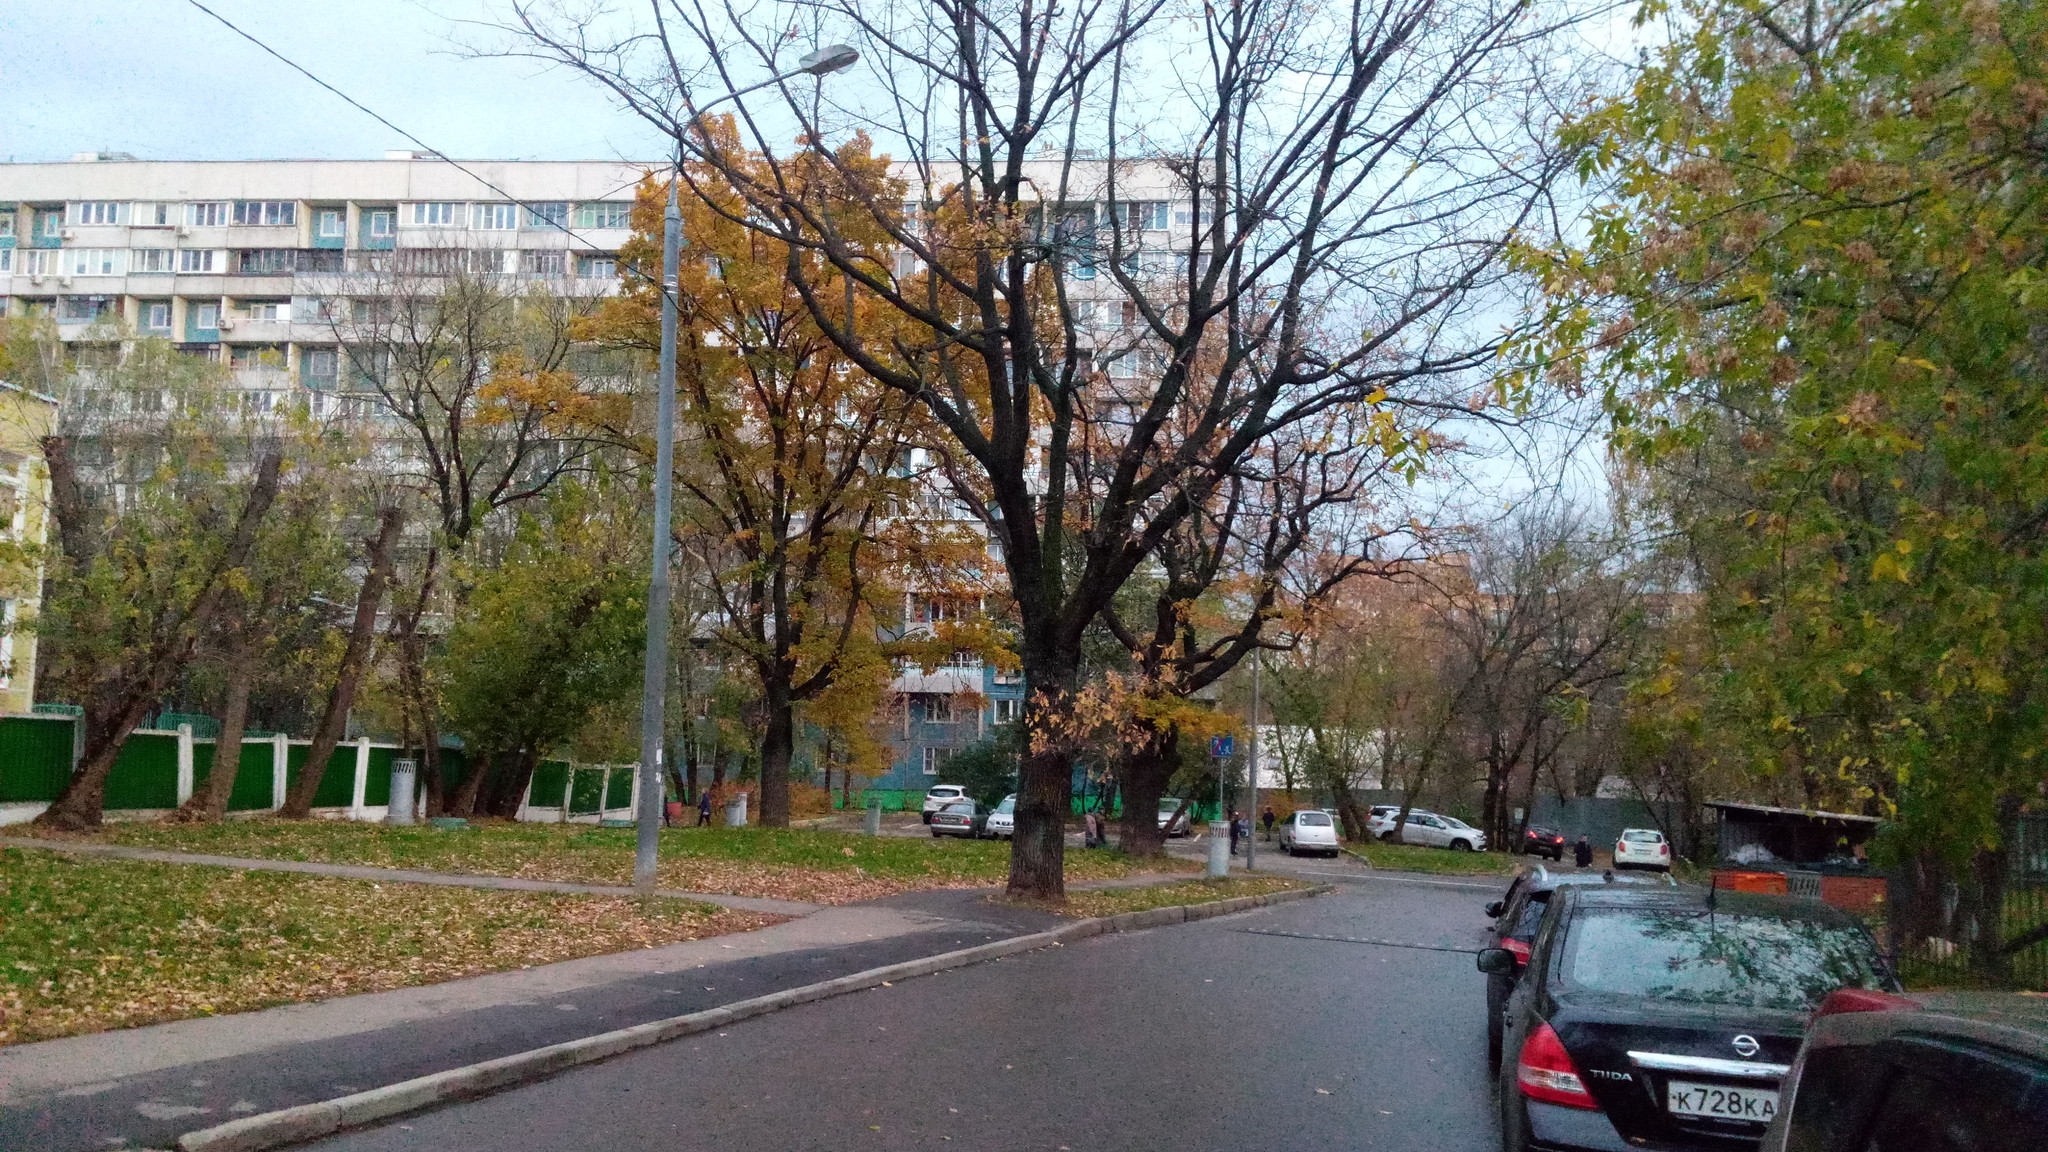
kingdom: Plantae
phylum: Tracheophyta
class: Magnoliopsida
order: Fagales
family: Fagaceae
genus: Quercus
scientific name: Quercus robur
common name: Pedunculate oak
